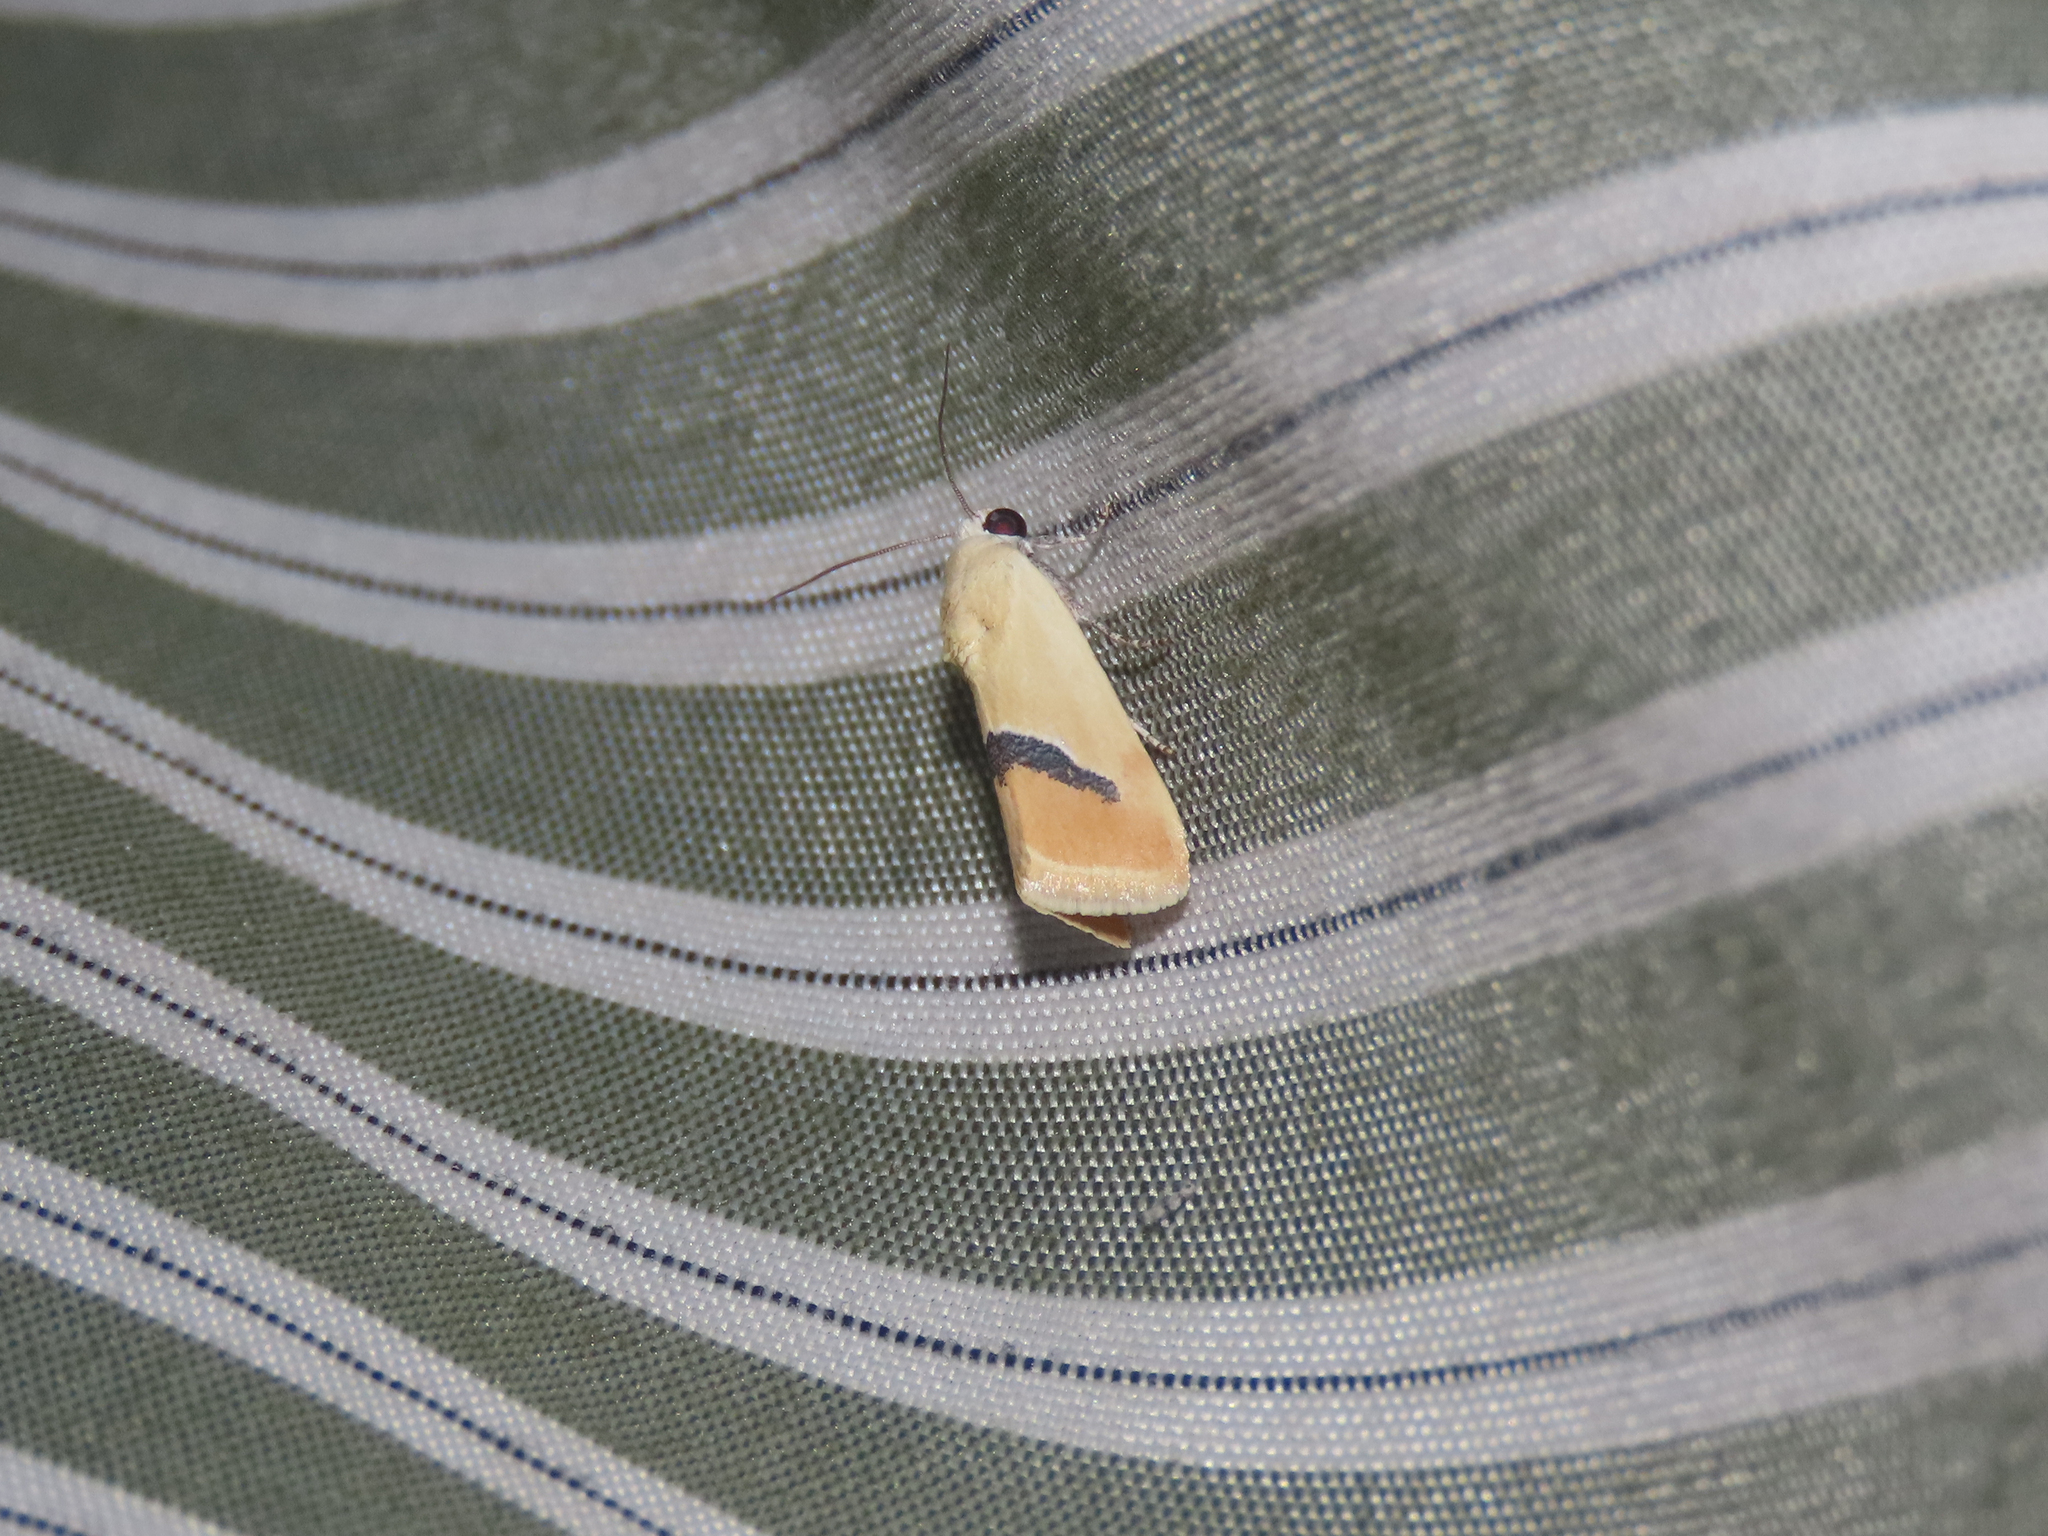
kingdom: Animalia
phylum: Arthropoda
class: Insecta
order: Lepidoptera
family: Noctuidae
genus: Ponometia
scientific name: Ponometia venustula
